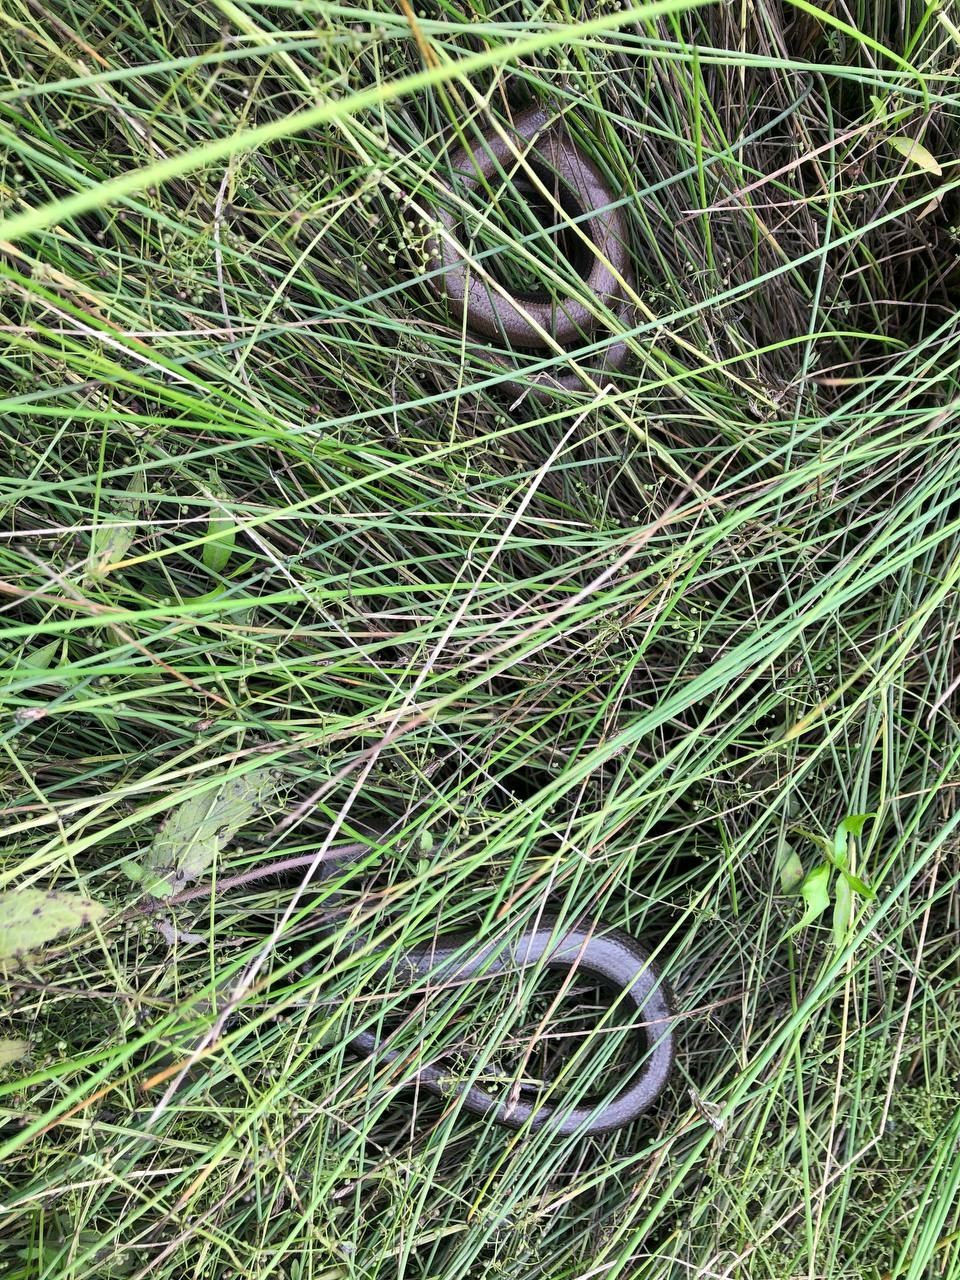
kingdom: Animalia
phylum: Chordata
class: Squamata
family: Anguidae
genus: Anguis
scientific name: Anguis fragilis
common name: Slow worm
